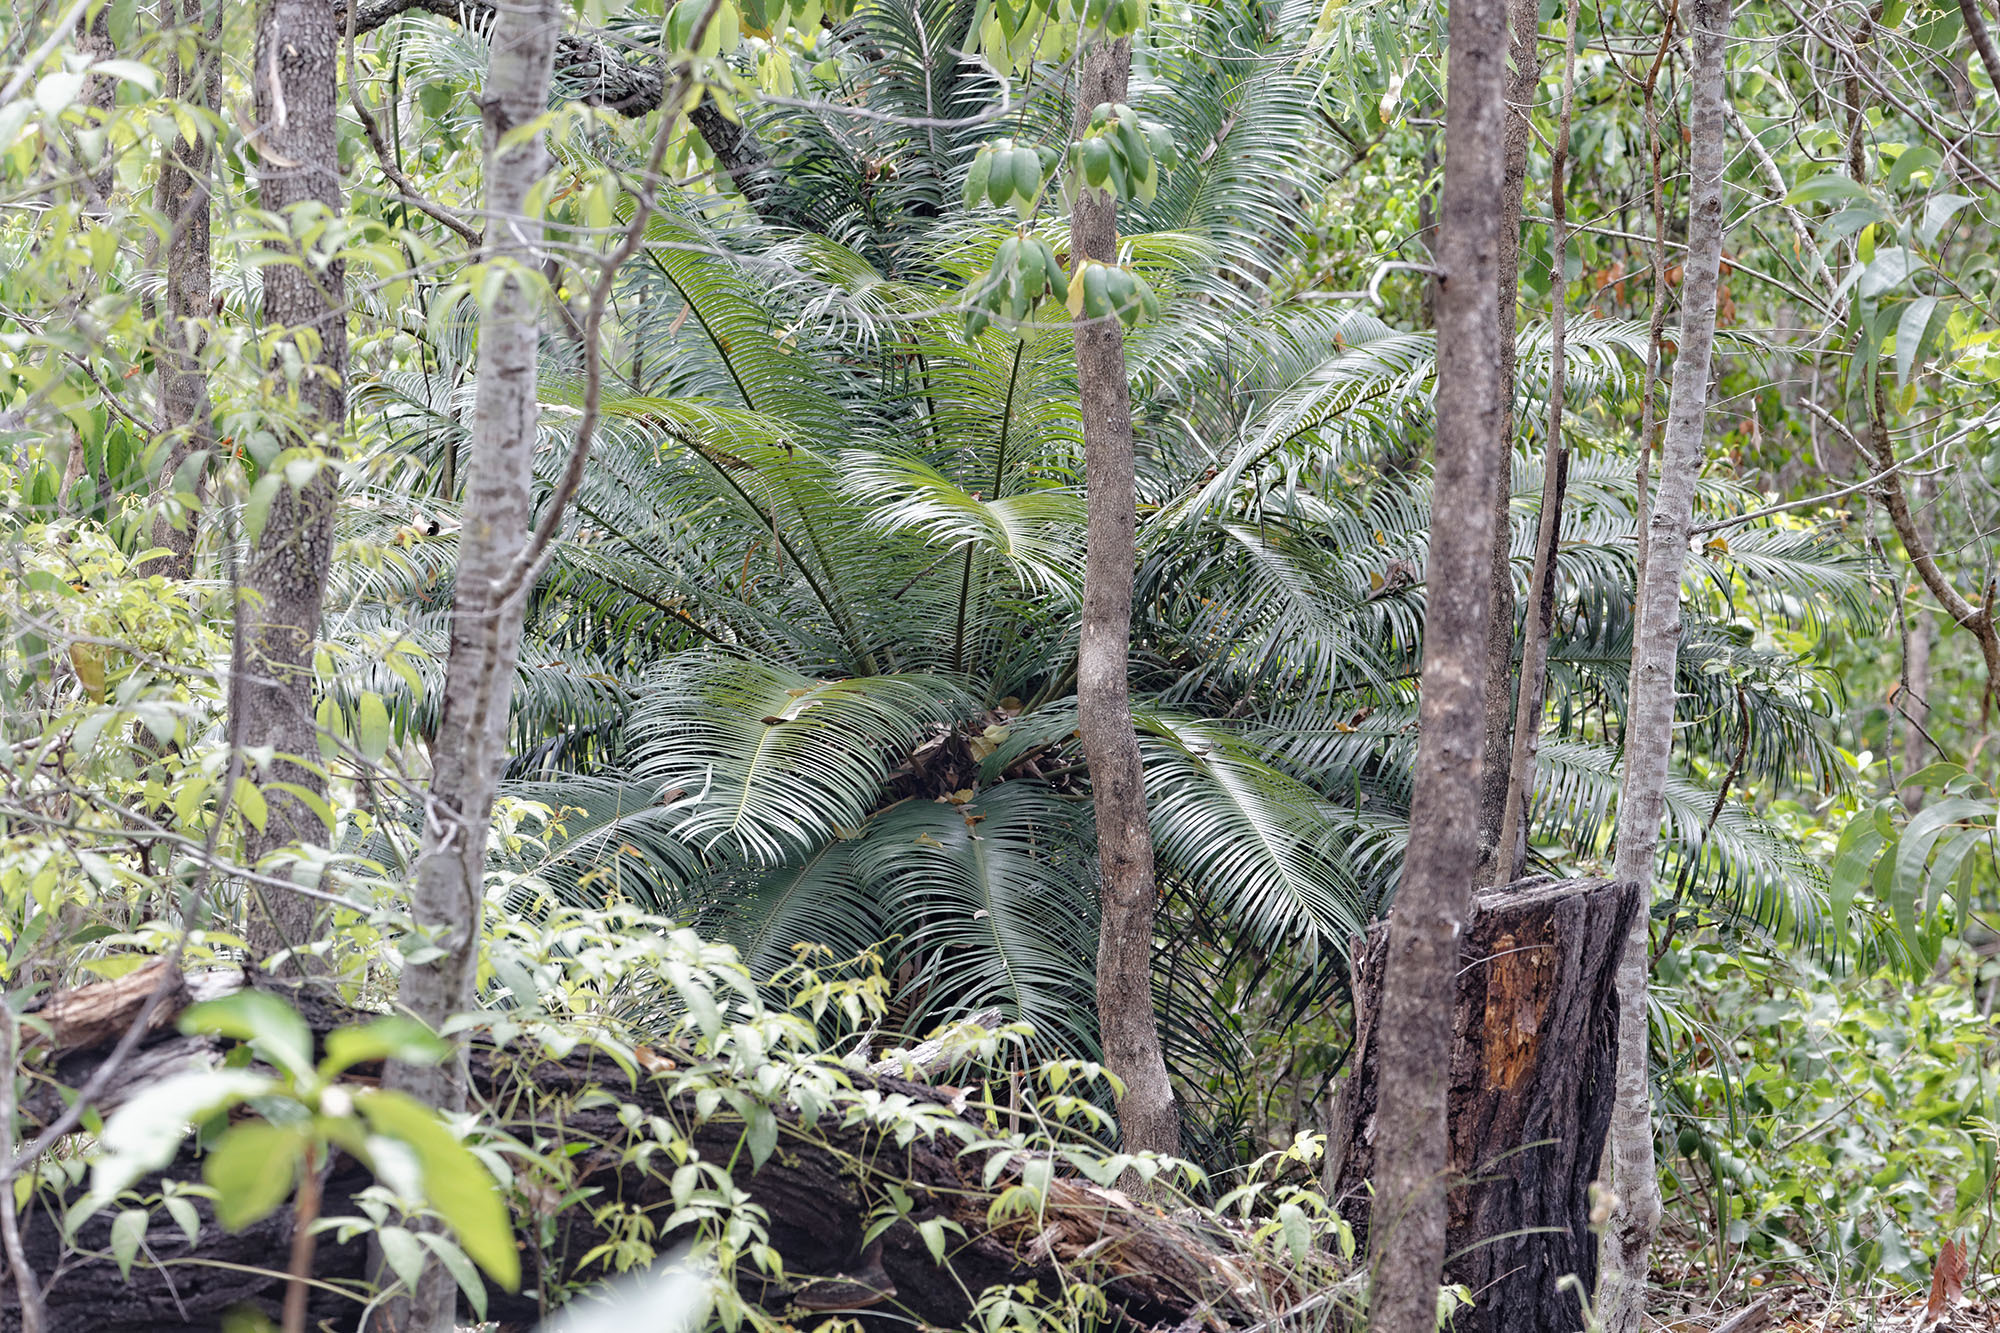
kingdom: Plantae
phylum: Tracheophyta
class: Cycadopsida
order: Cycadales
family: Cycadaceae
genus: Cycas
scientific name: Cycas media
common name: Queensland cycas
